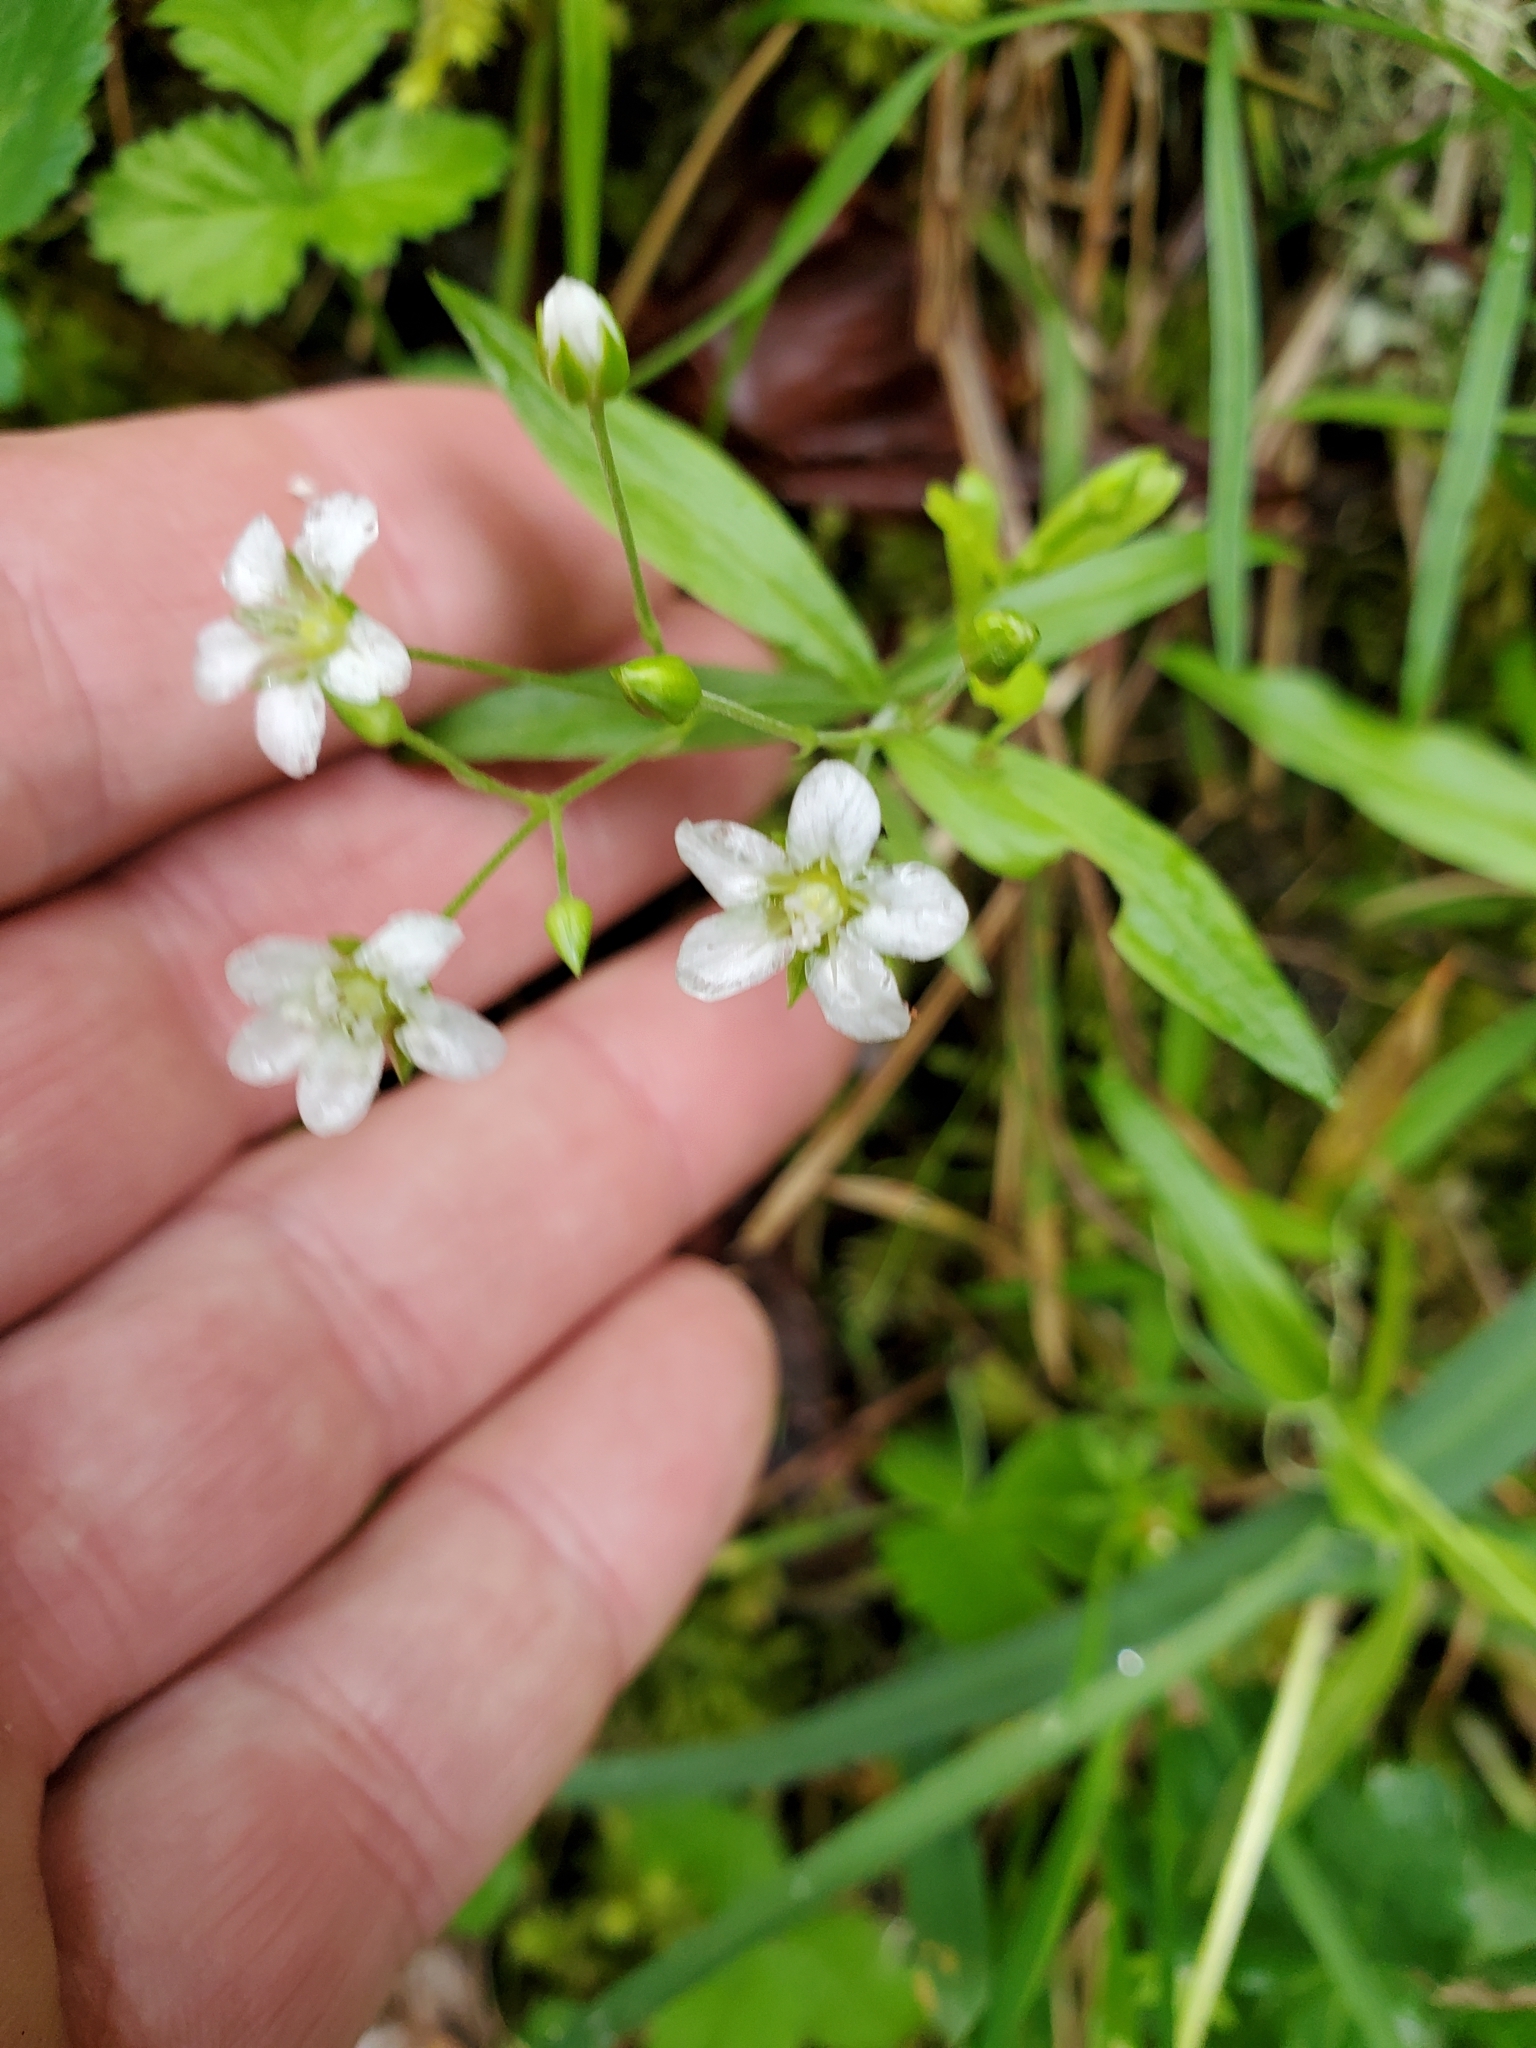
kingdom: Plantae
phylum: Tracheophyta
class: Magnoliopsida
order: Caryophyllales
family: Caryophyllaceae
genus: Moehringia
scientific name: Moehringia macrophylla
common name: Big-leaf sandwort
